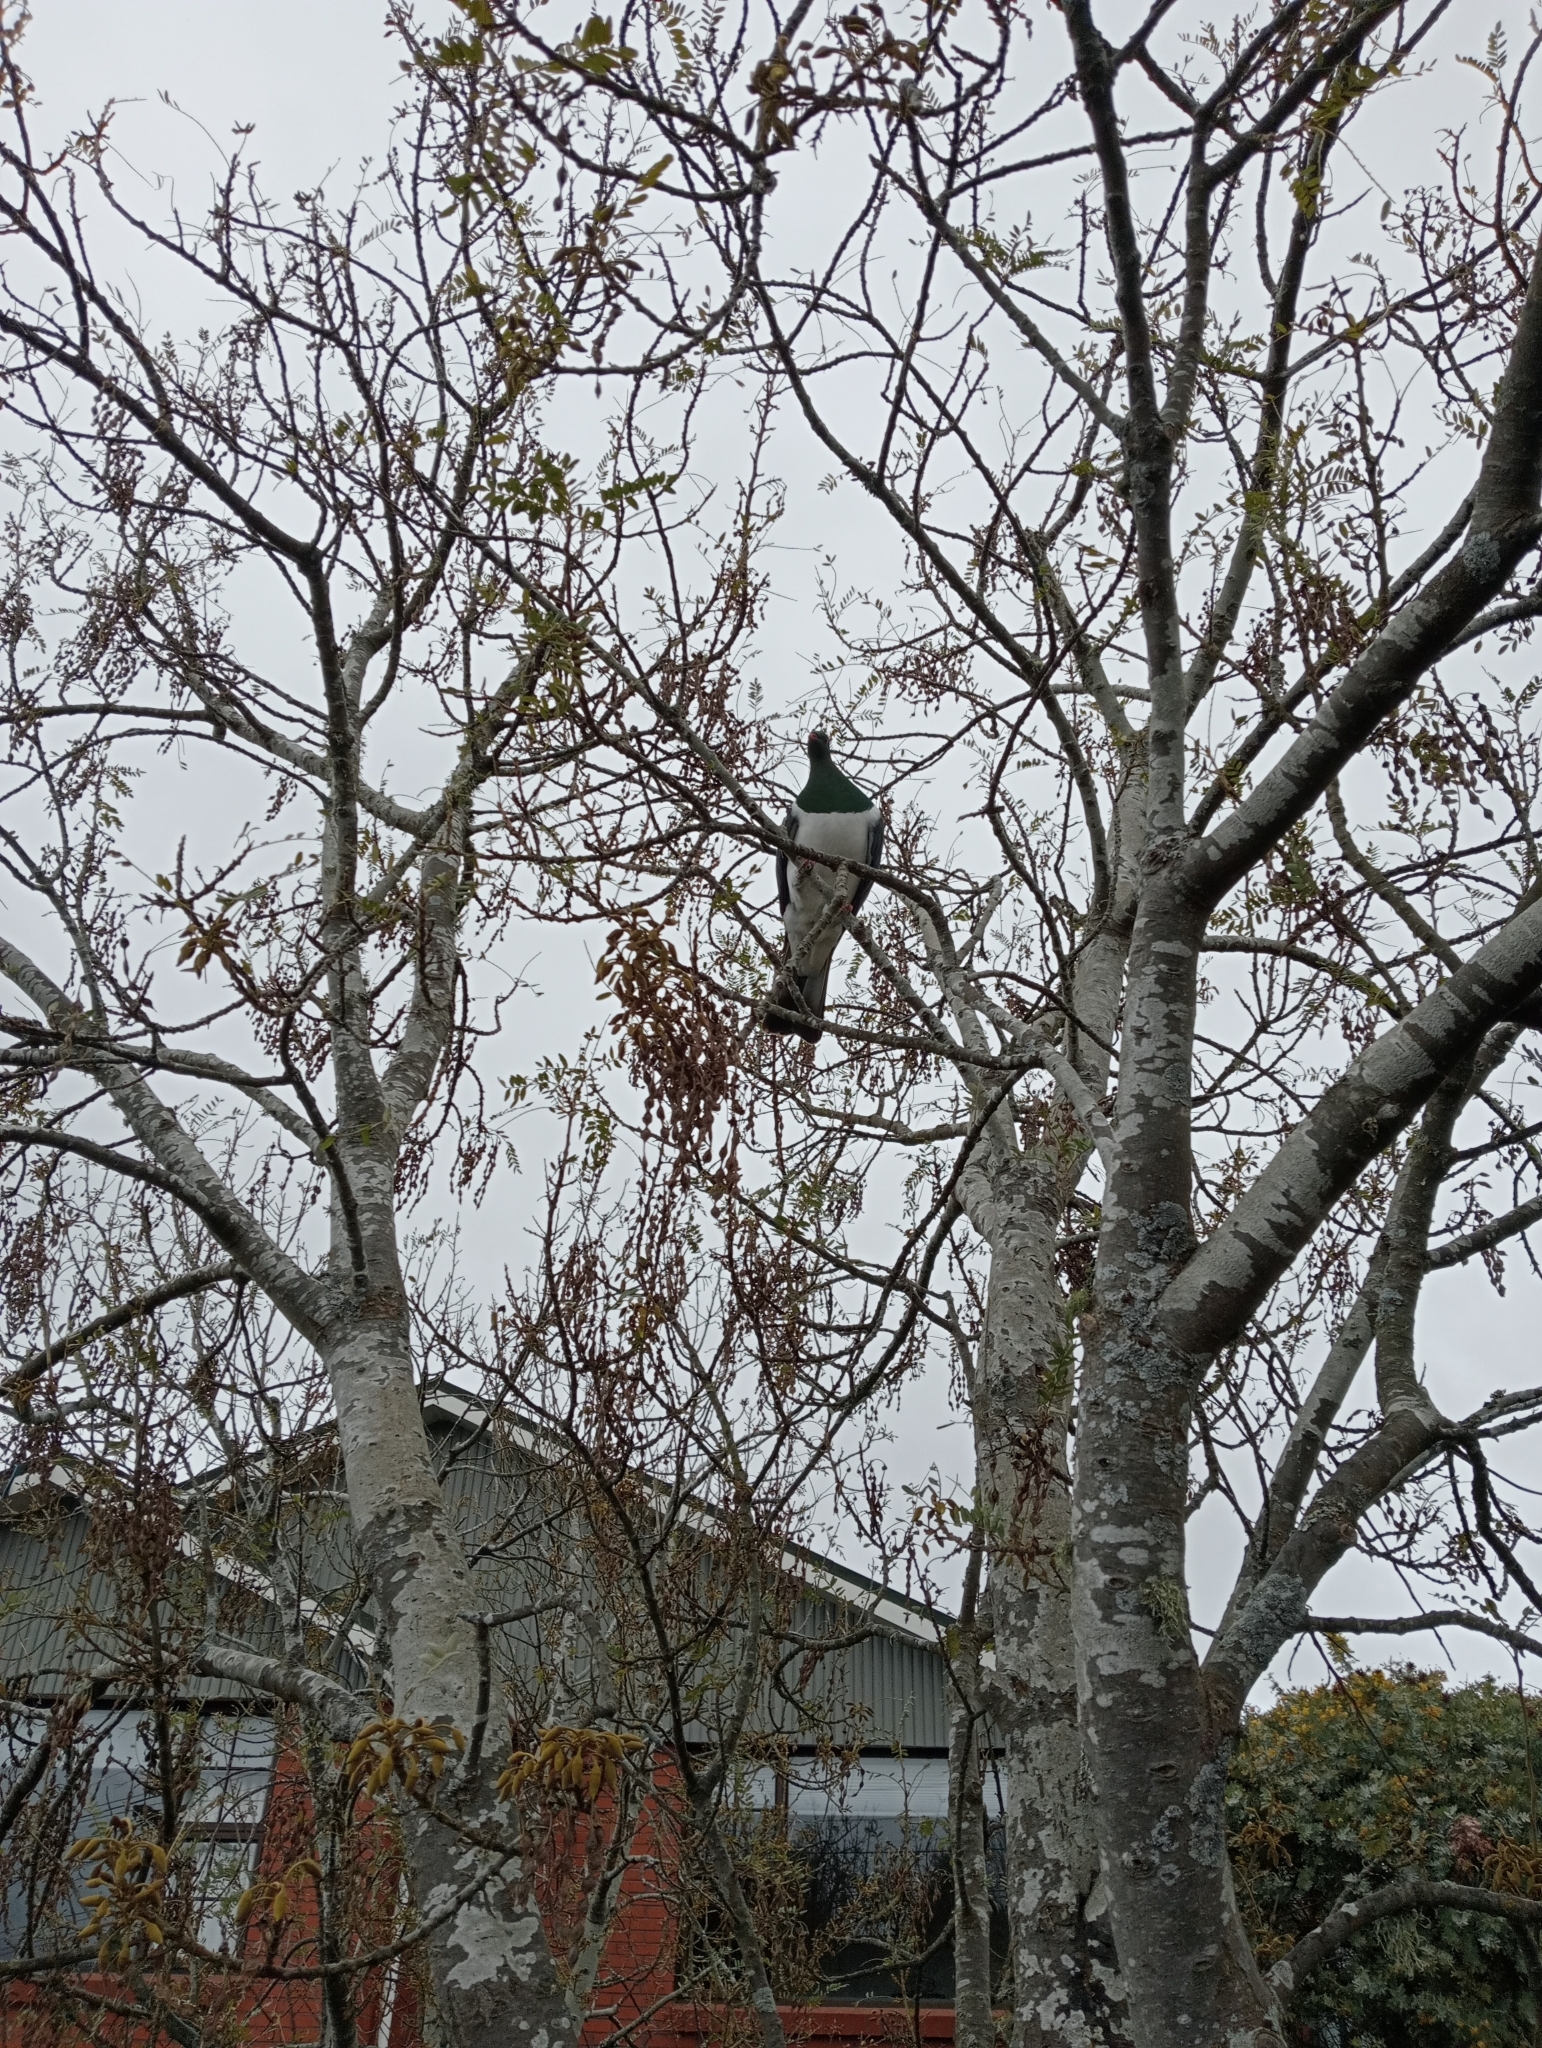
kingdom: Animalia
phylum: Chordata
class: Aves
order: Columbiformes
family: Columbidae
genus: Hemiphaga
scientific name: Hemiphaga novaeseelandiae
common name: New zealand pigeon
